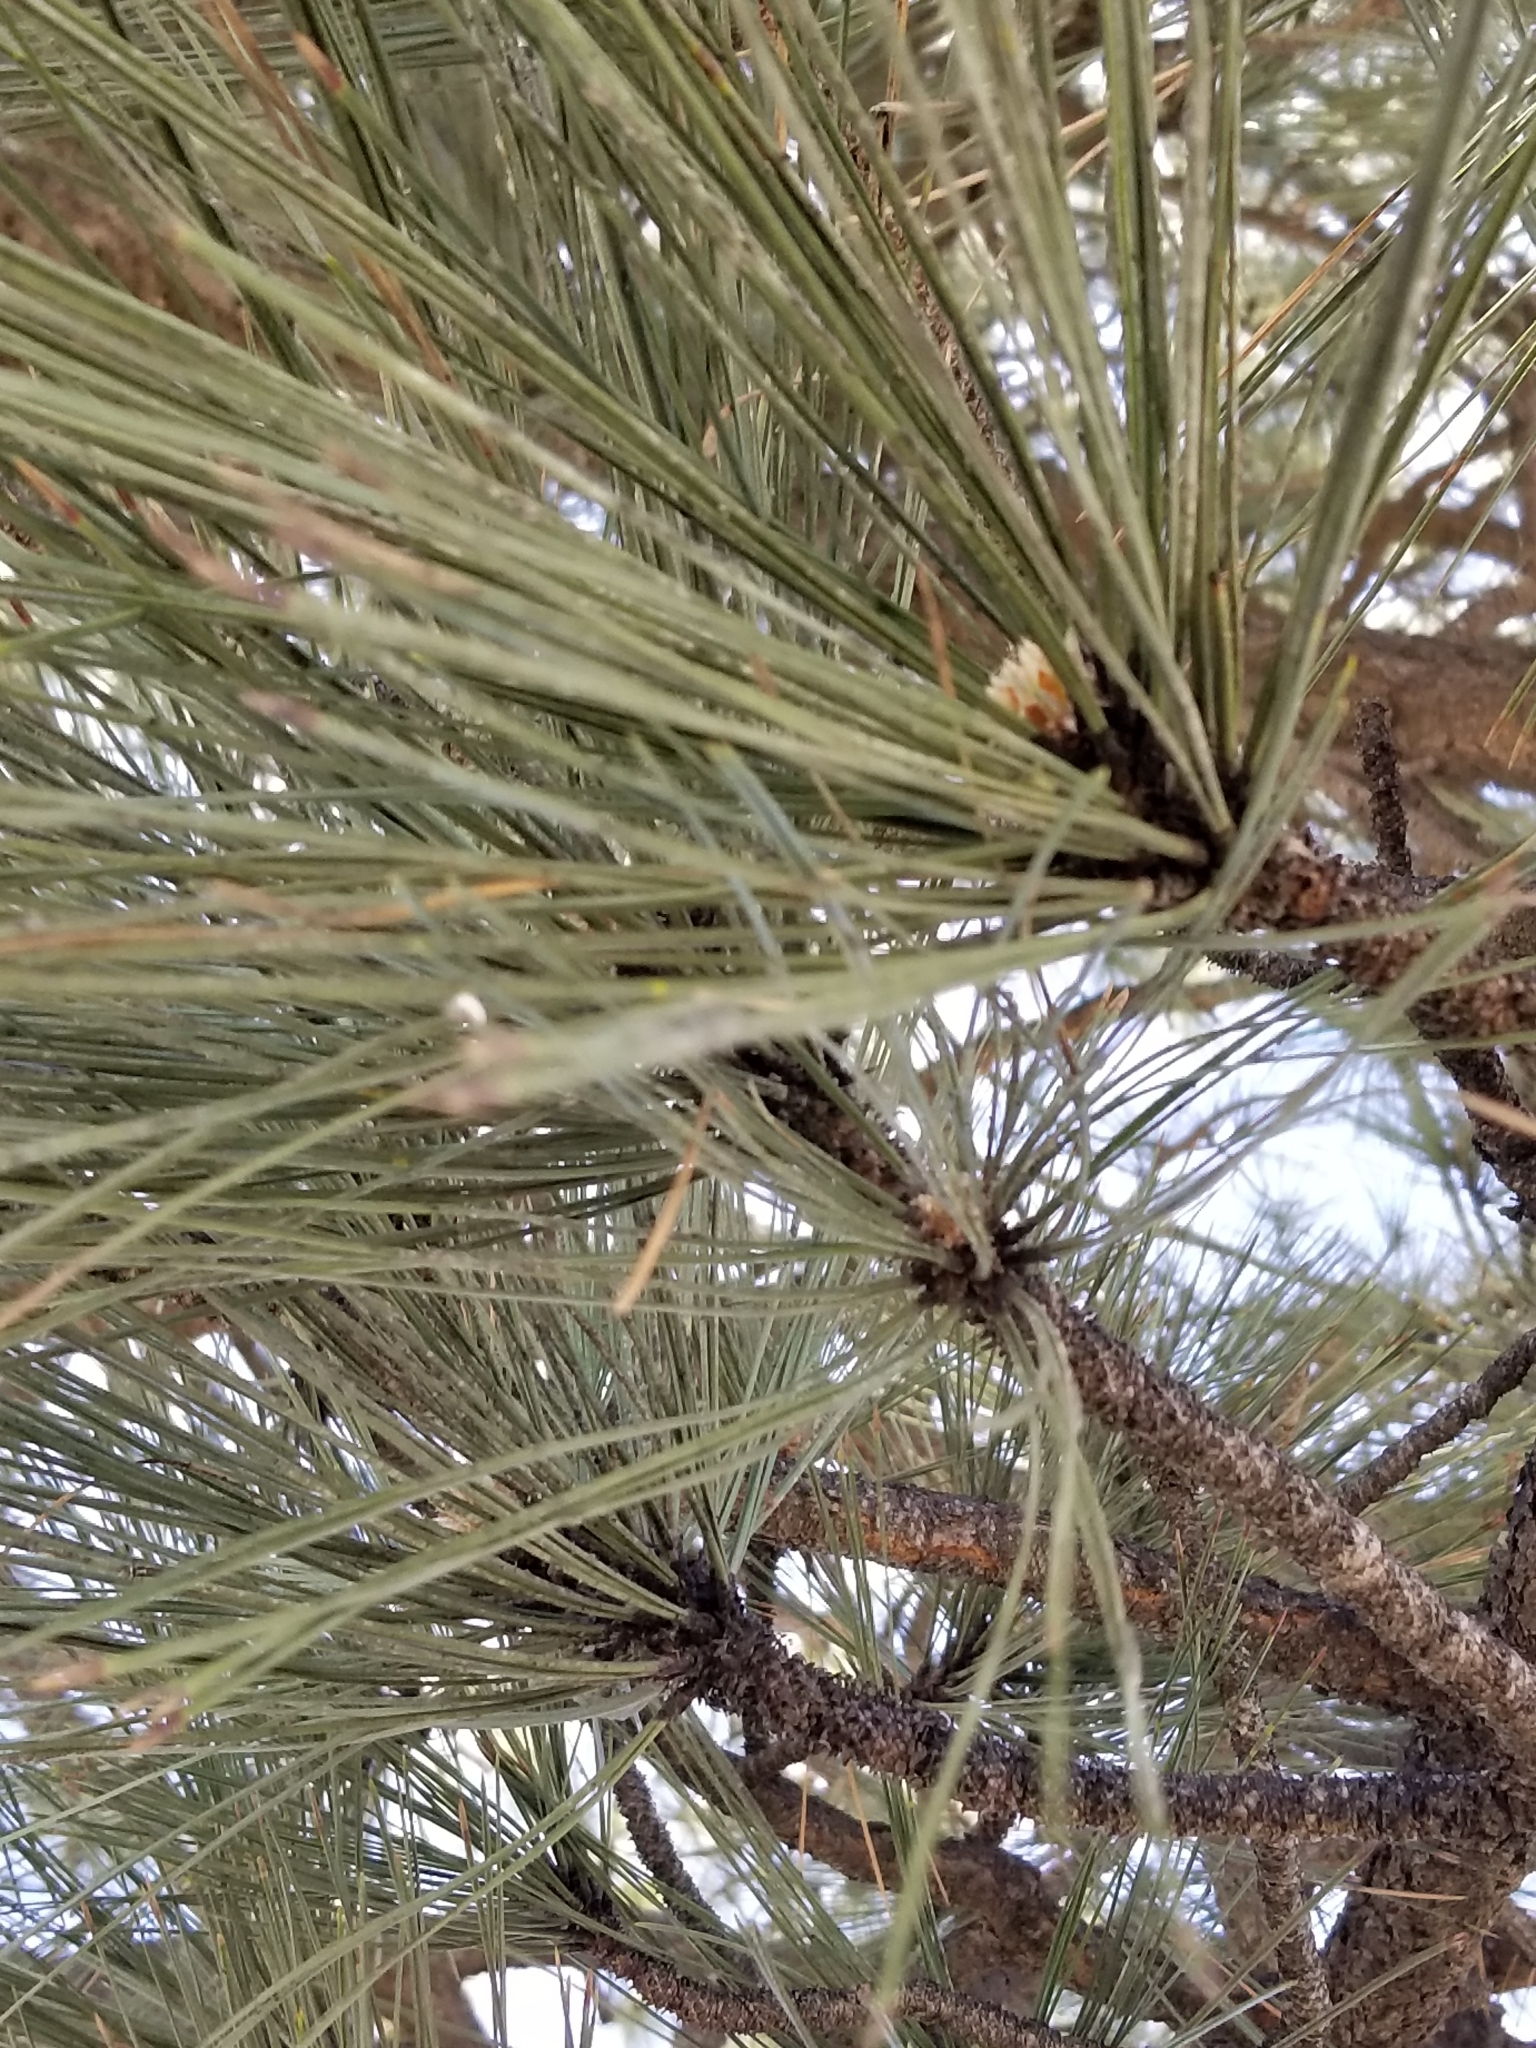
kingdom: Plantae
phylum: Tracheophyta
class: Pinopsida
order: Pinales
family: Pinaceae
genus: Pinus
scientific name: Pinus jeffreyi
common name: Jeffrey pine
